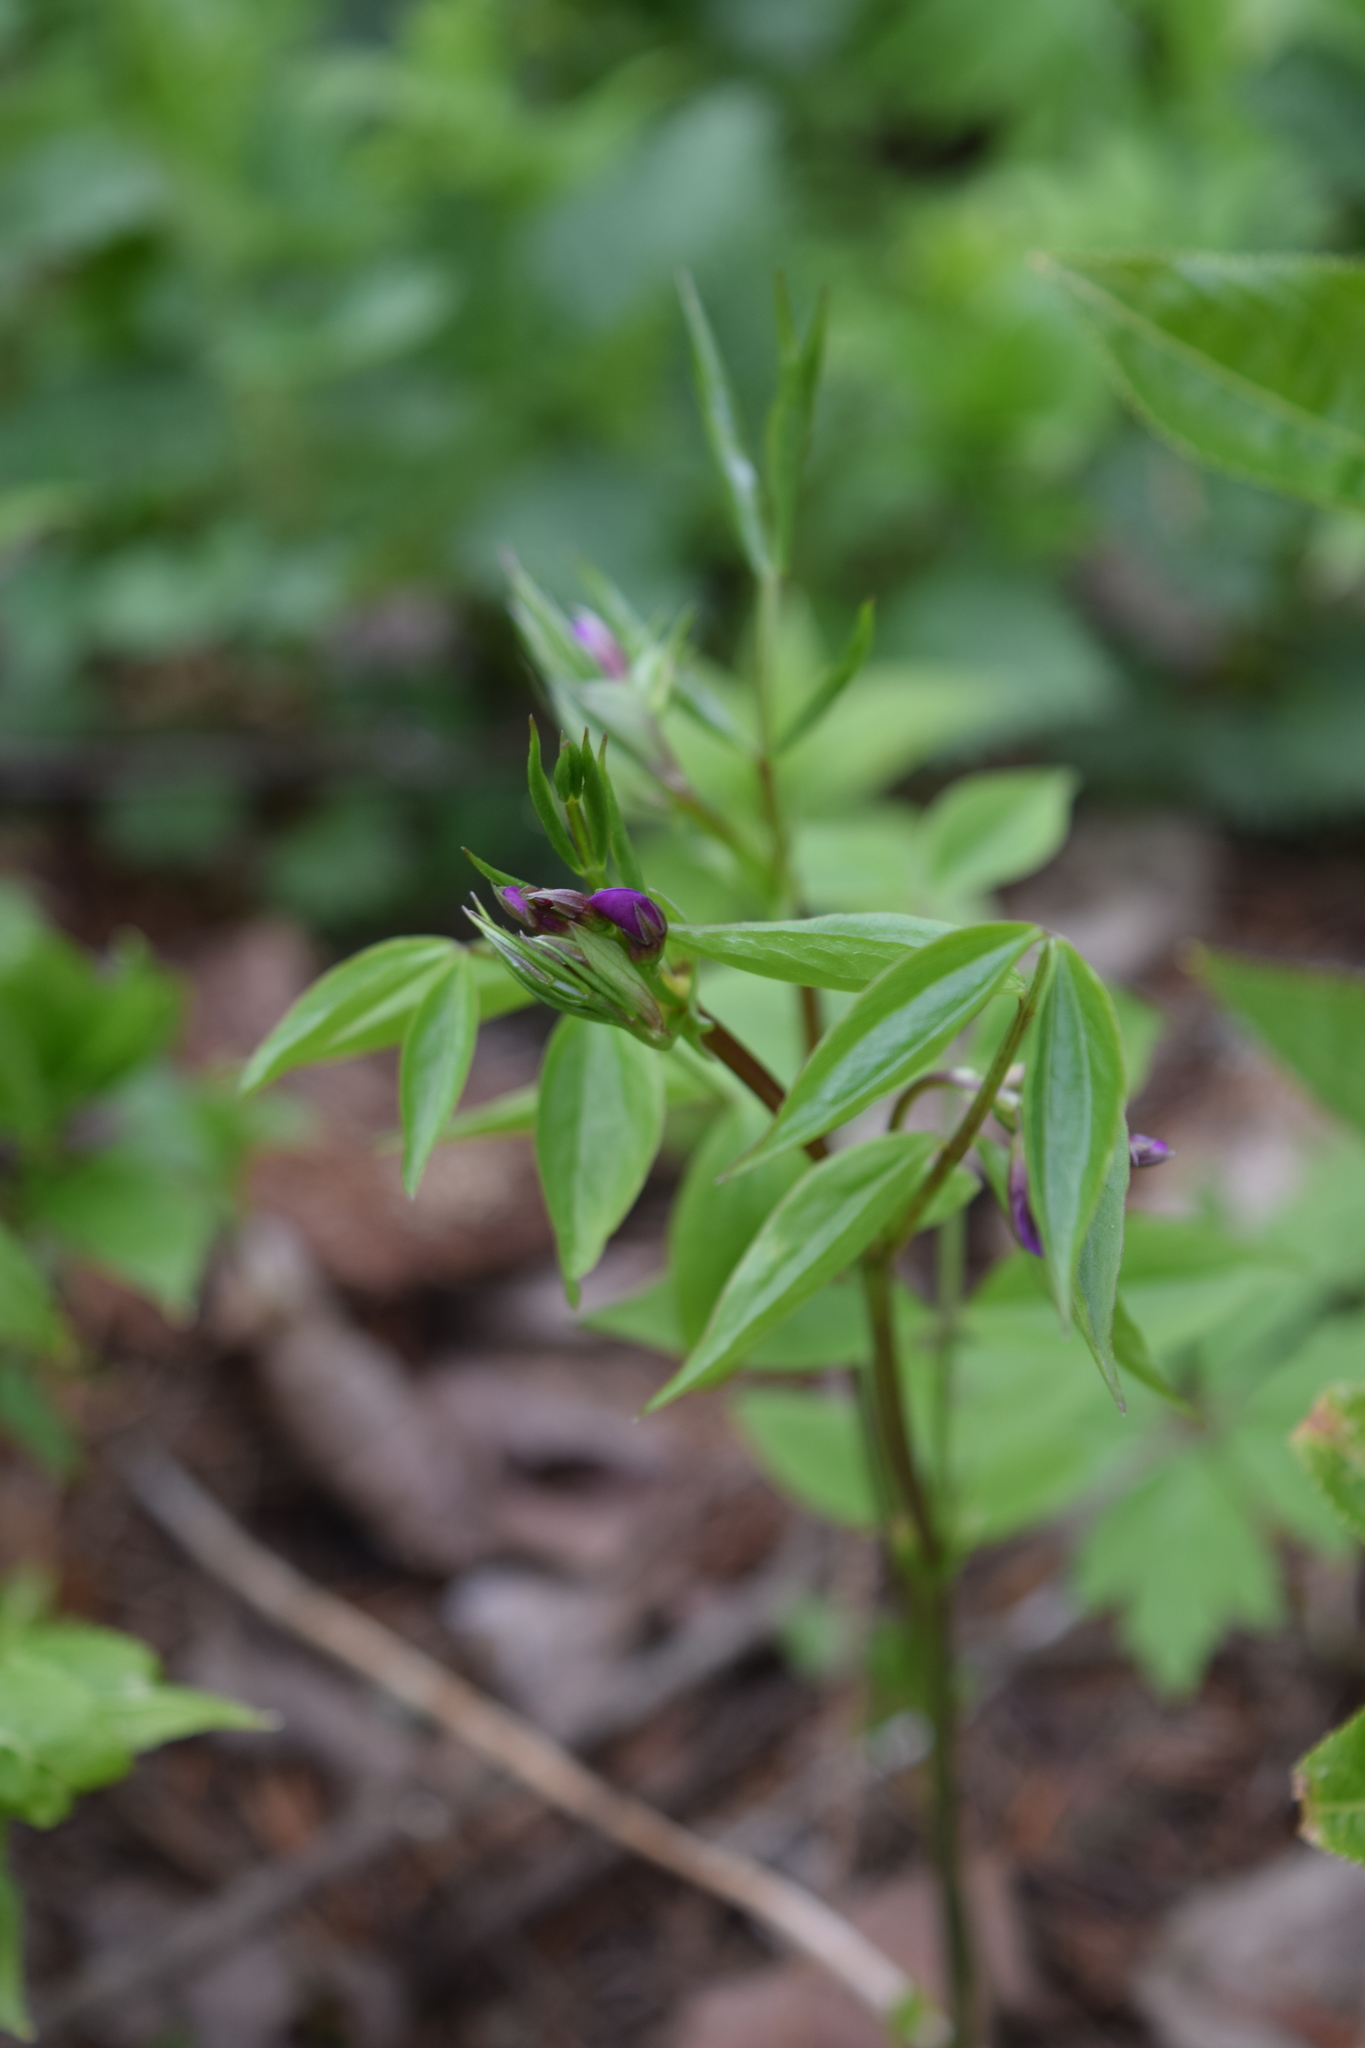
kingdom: Plantae
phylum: Tracheophyta
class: Magnoliopsida
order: Fabales
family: Fabaceae
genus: Lathyrus
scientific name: Lathyrus vernus
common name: Spring pea
